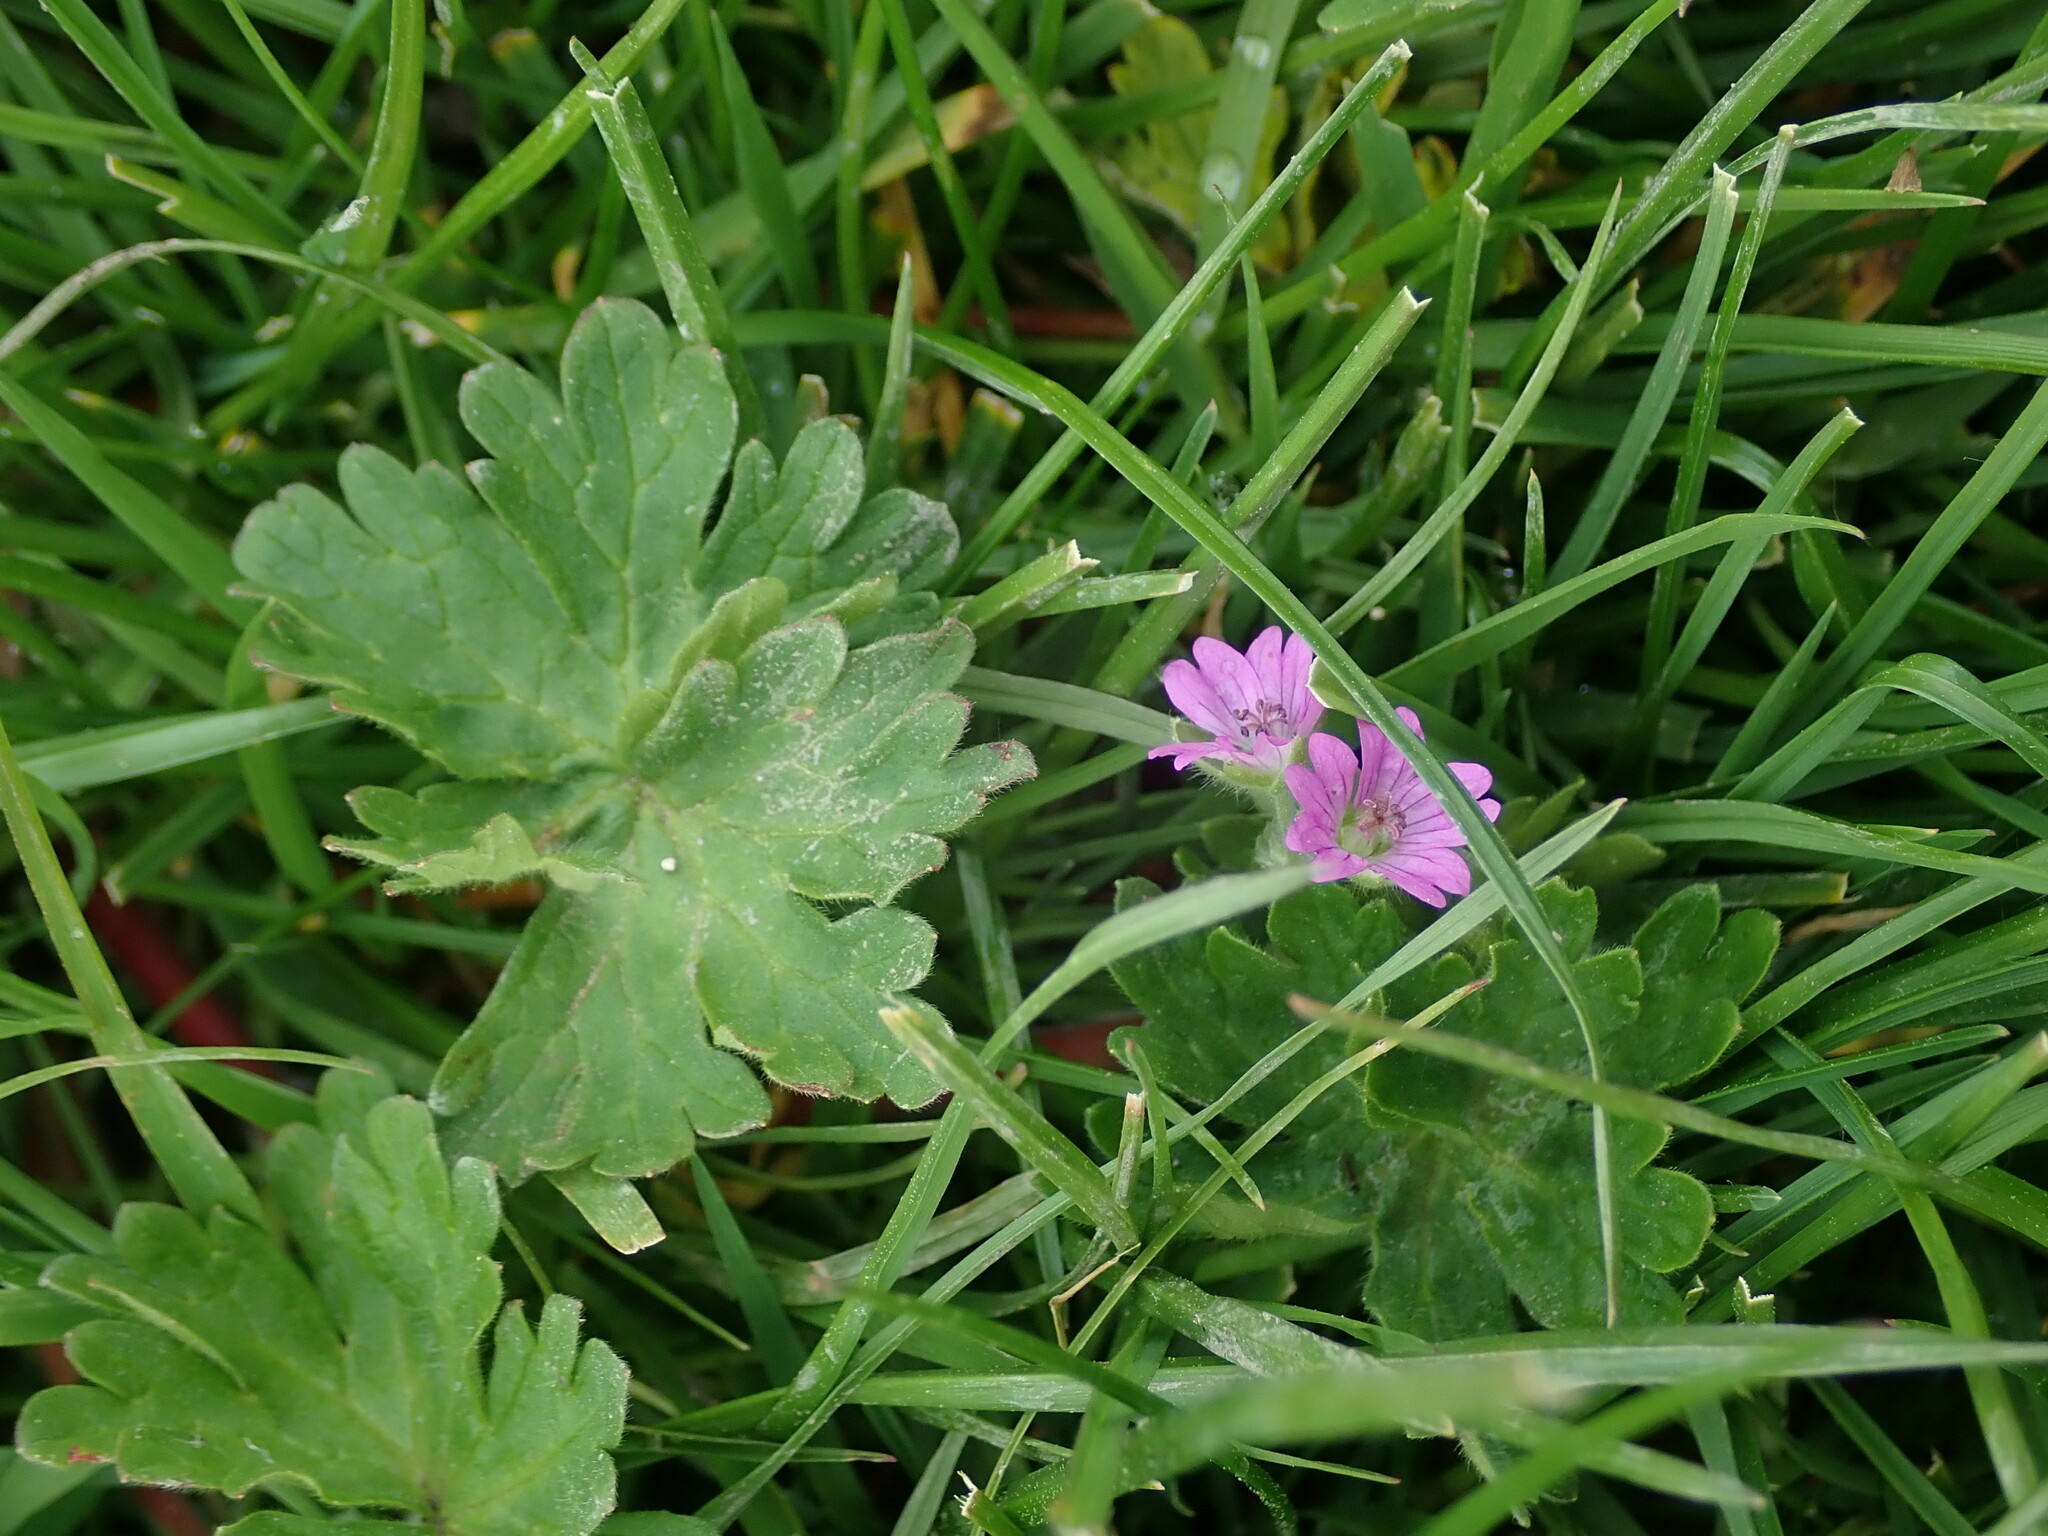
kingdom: Plantae
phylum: Tracheophyta
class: Magnoliopsida
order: Geraniales
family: Geraniaceae
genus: Geranium
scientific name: Geranium molle
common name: Dove's-foot crane's-bill
